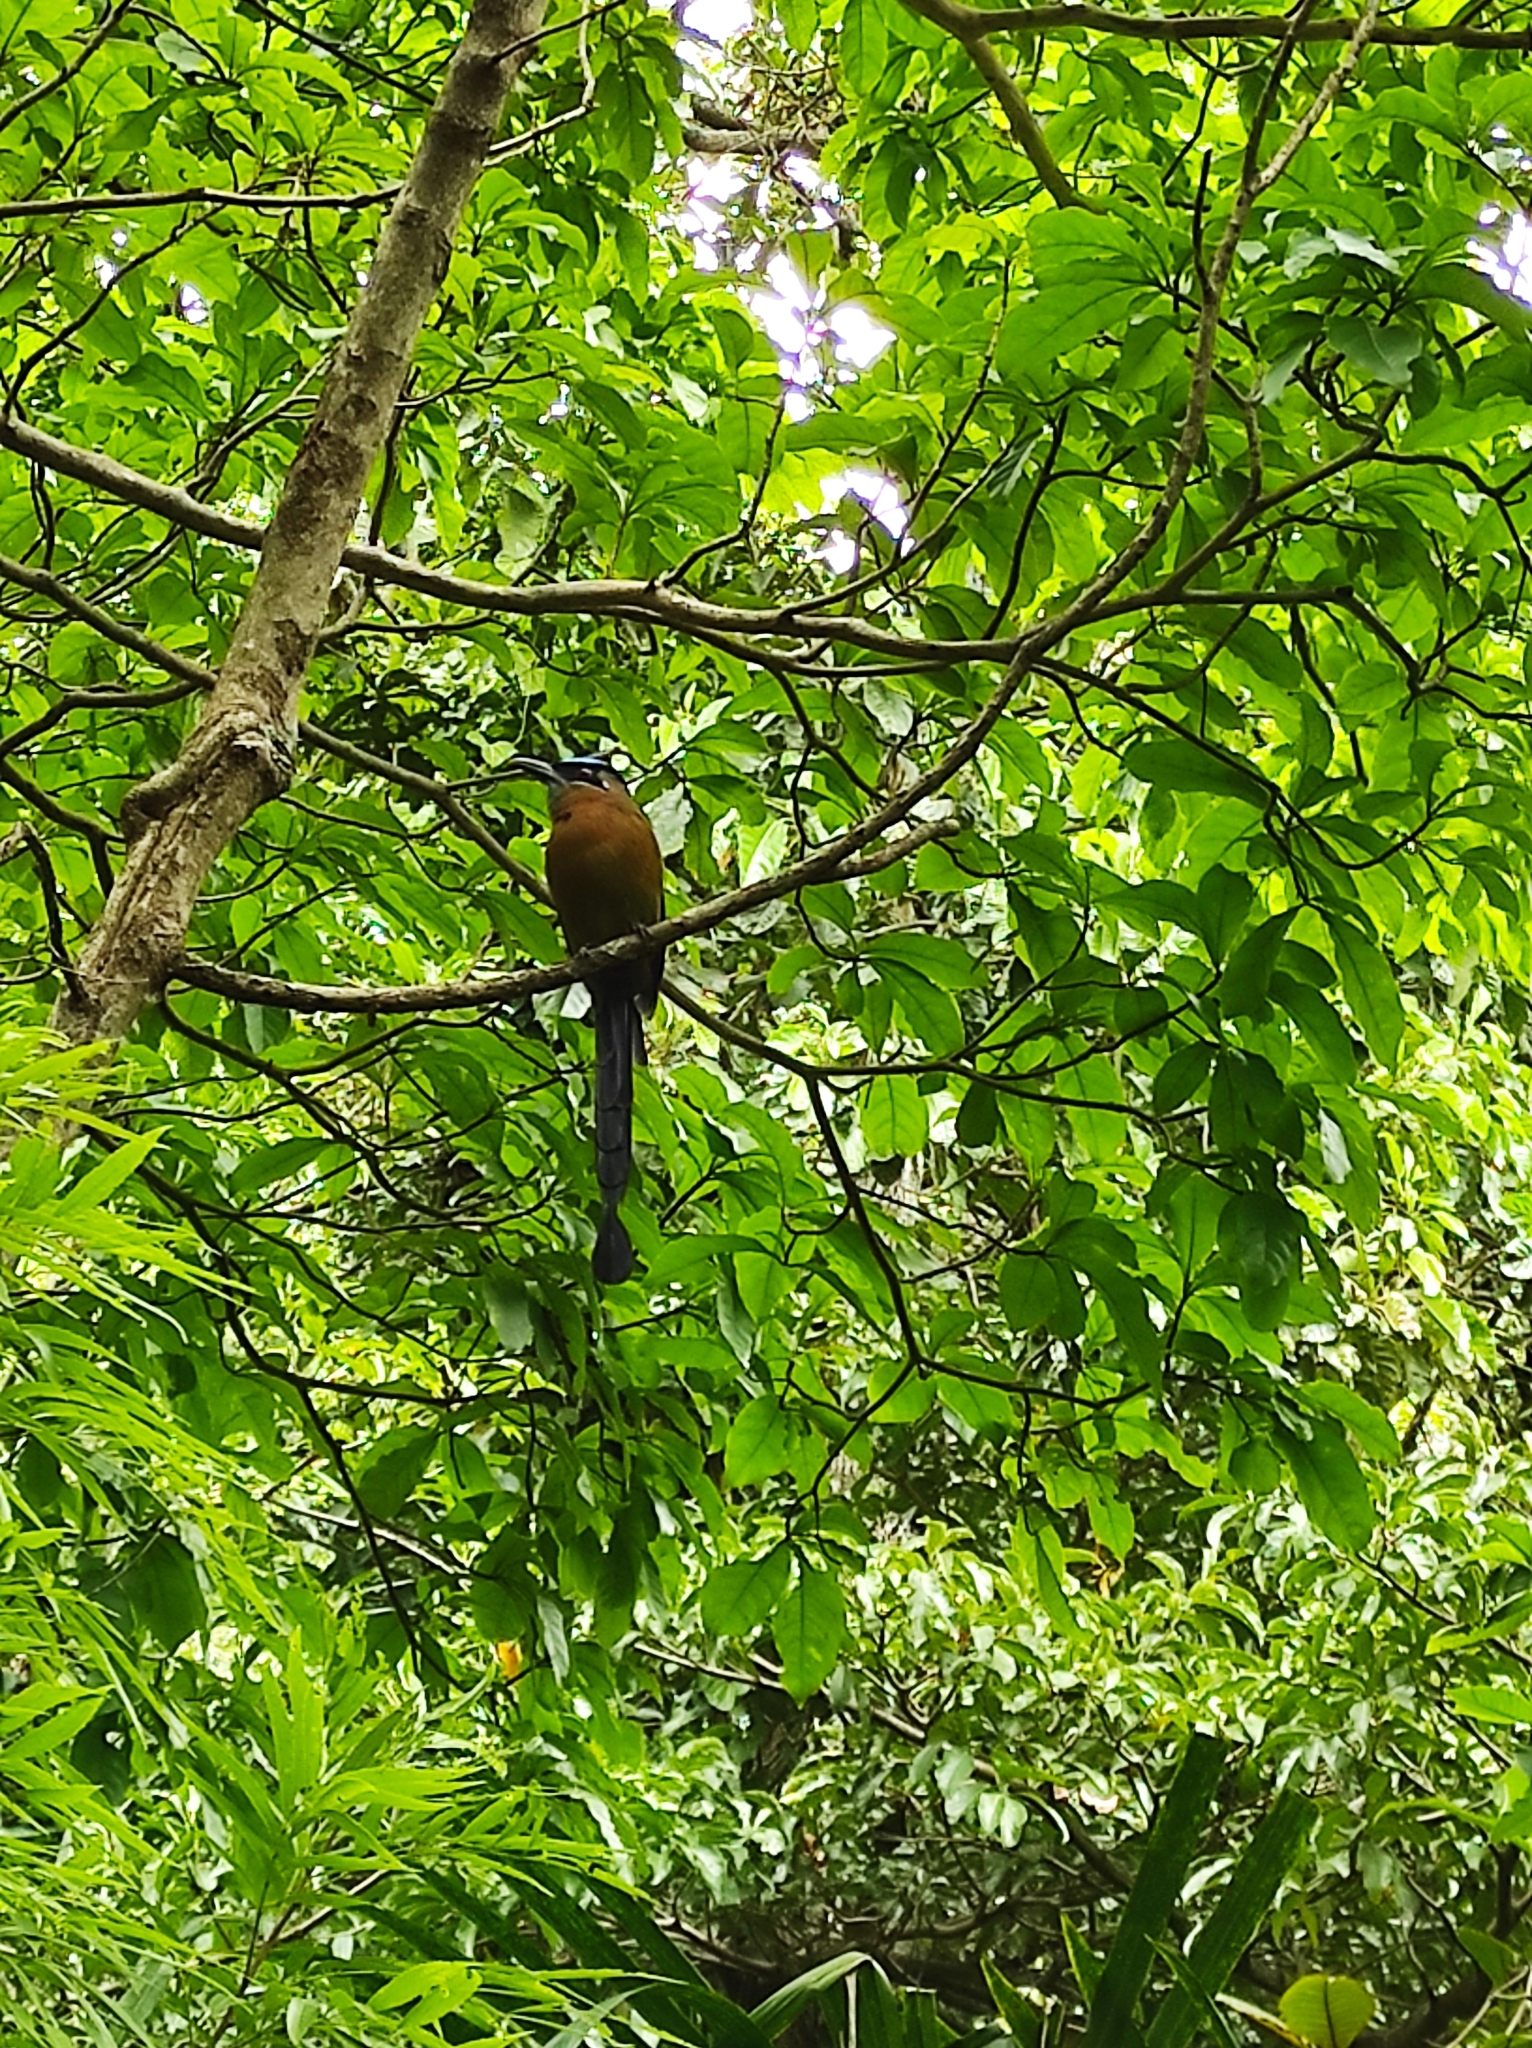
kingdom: Animalia
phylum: Chordata
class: Aves
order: Coraciiformes
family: Momotidae
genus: Momotus
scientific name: Momotus lessonii
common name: Lesson's motmot
